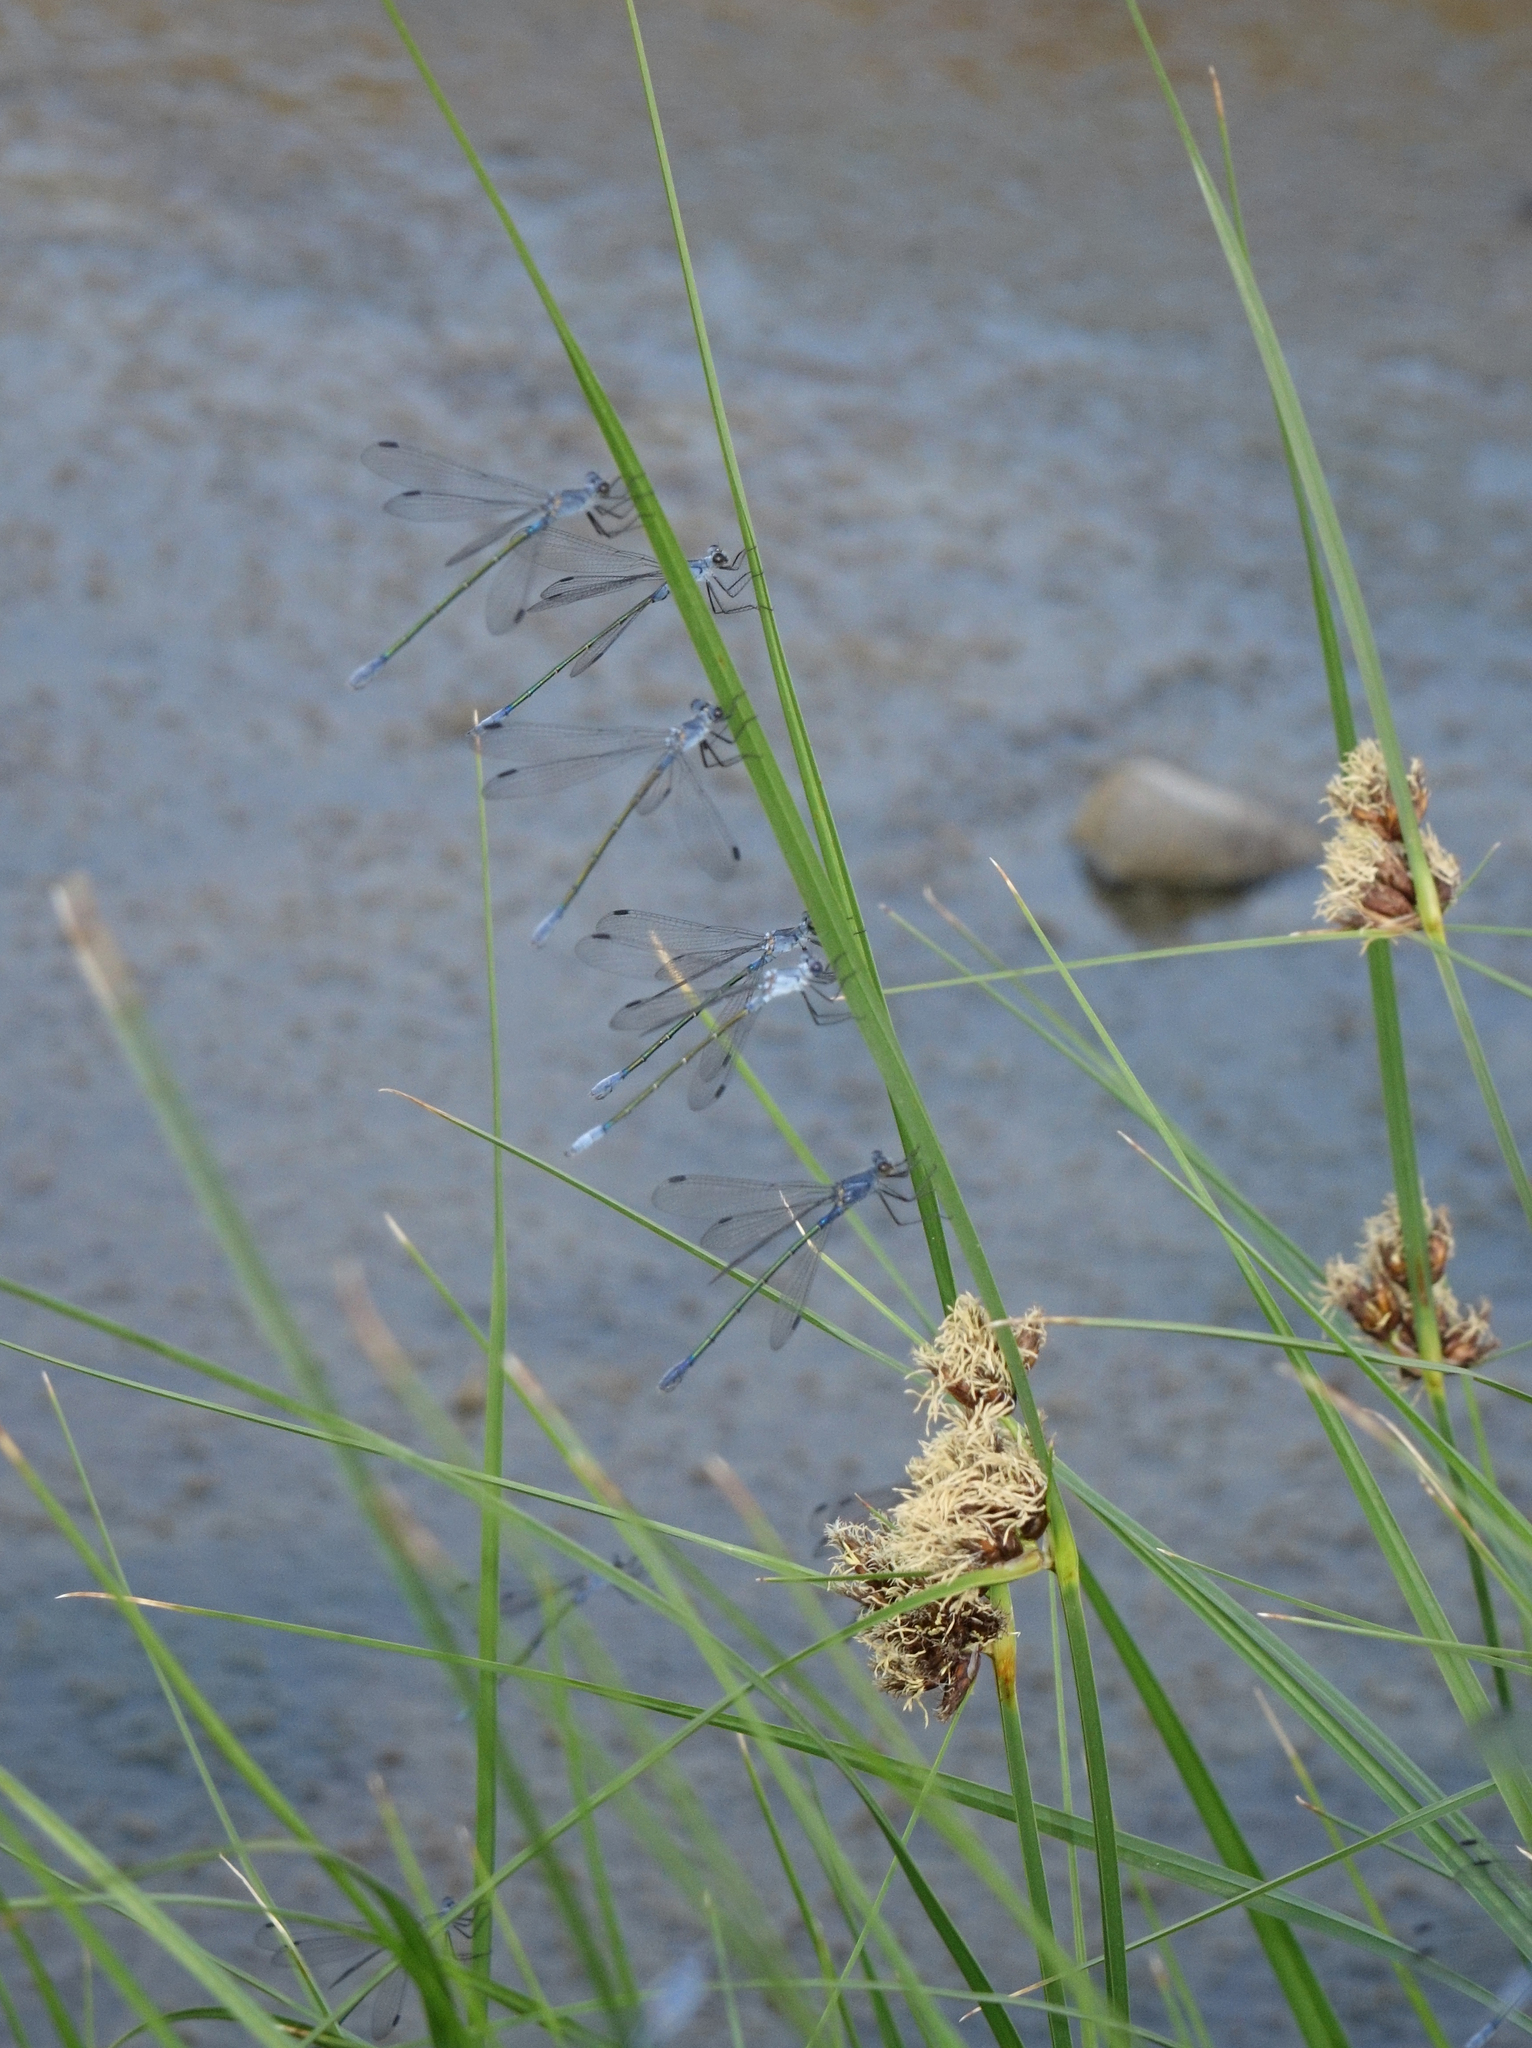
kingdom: Animalia
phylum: Arthropoda
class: Insecta
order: Odonata
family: Lestidae
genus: Lestes
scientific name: Lestes macrostigma
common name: Dark spreadwing
